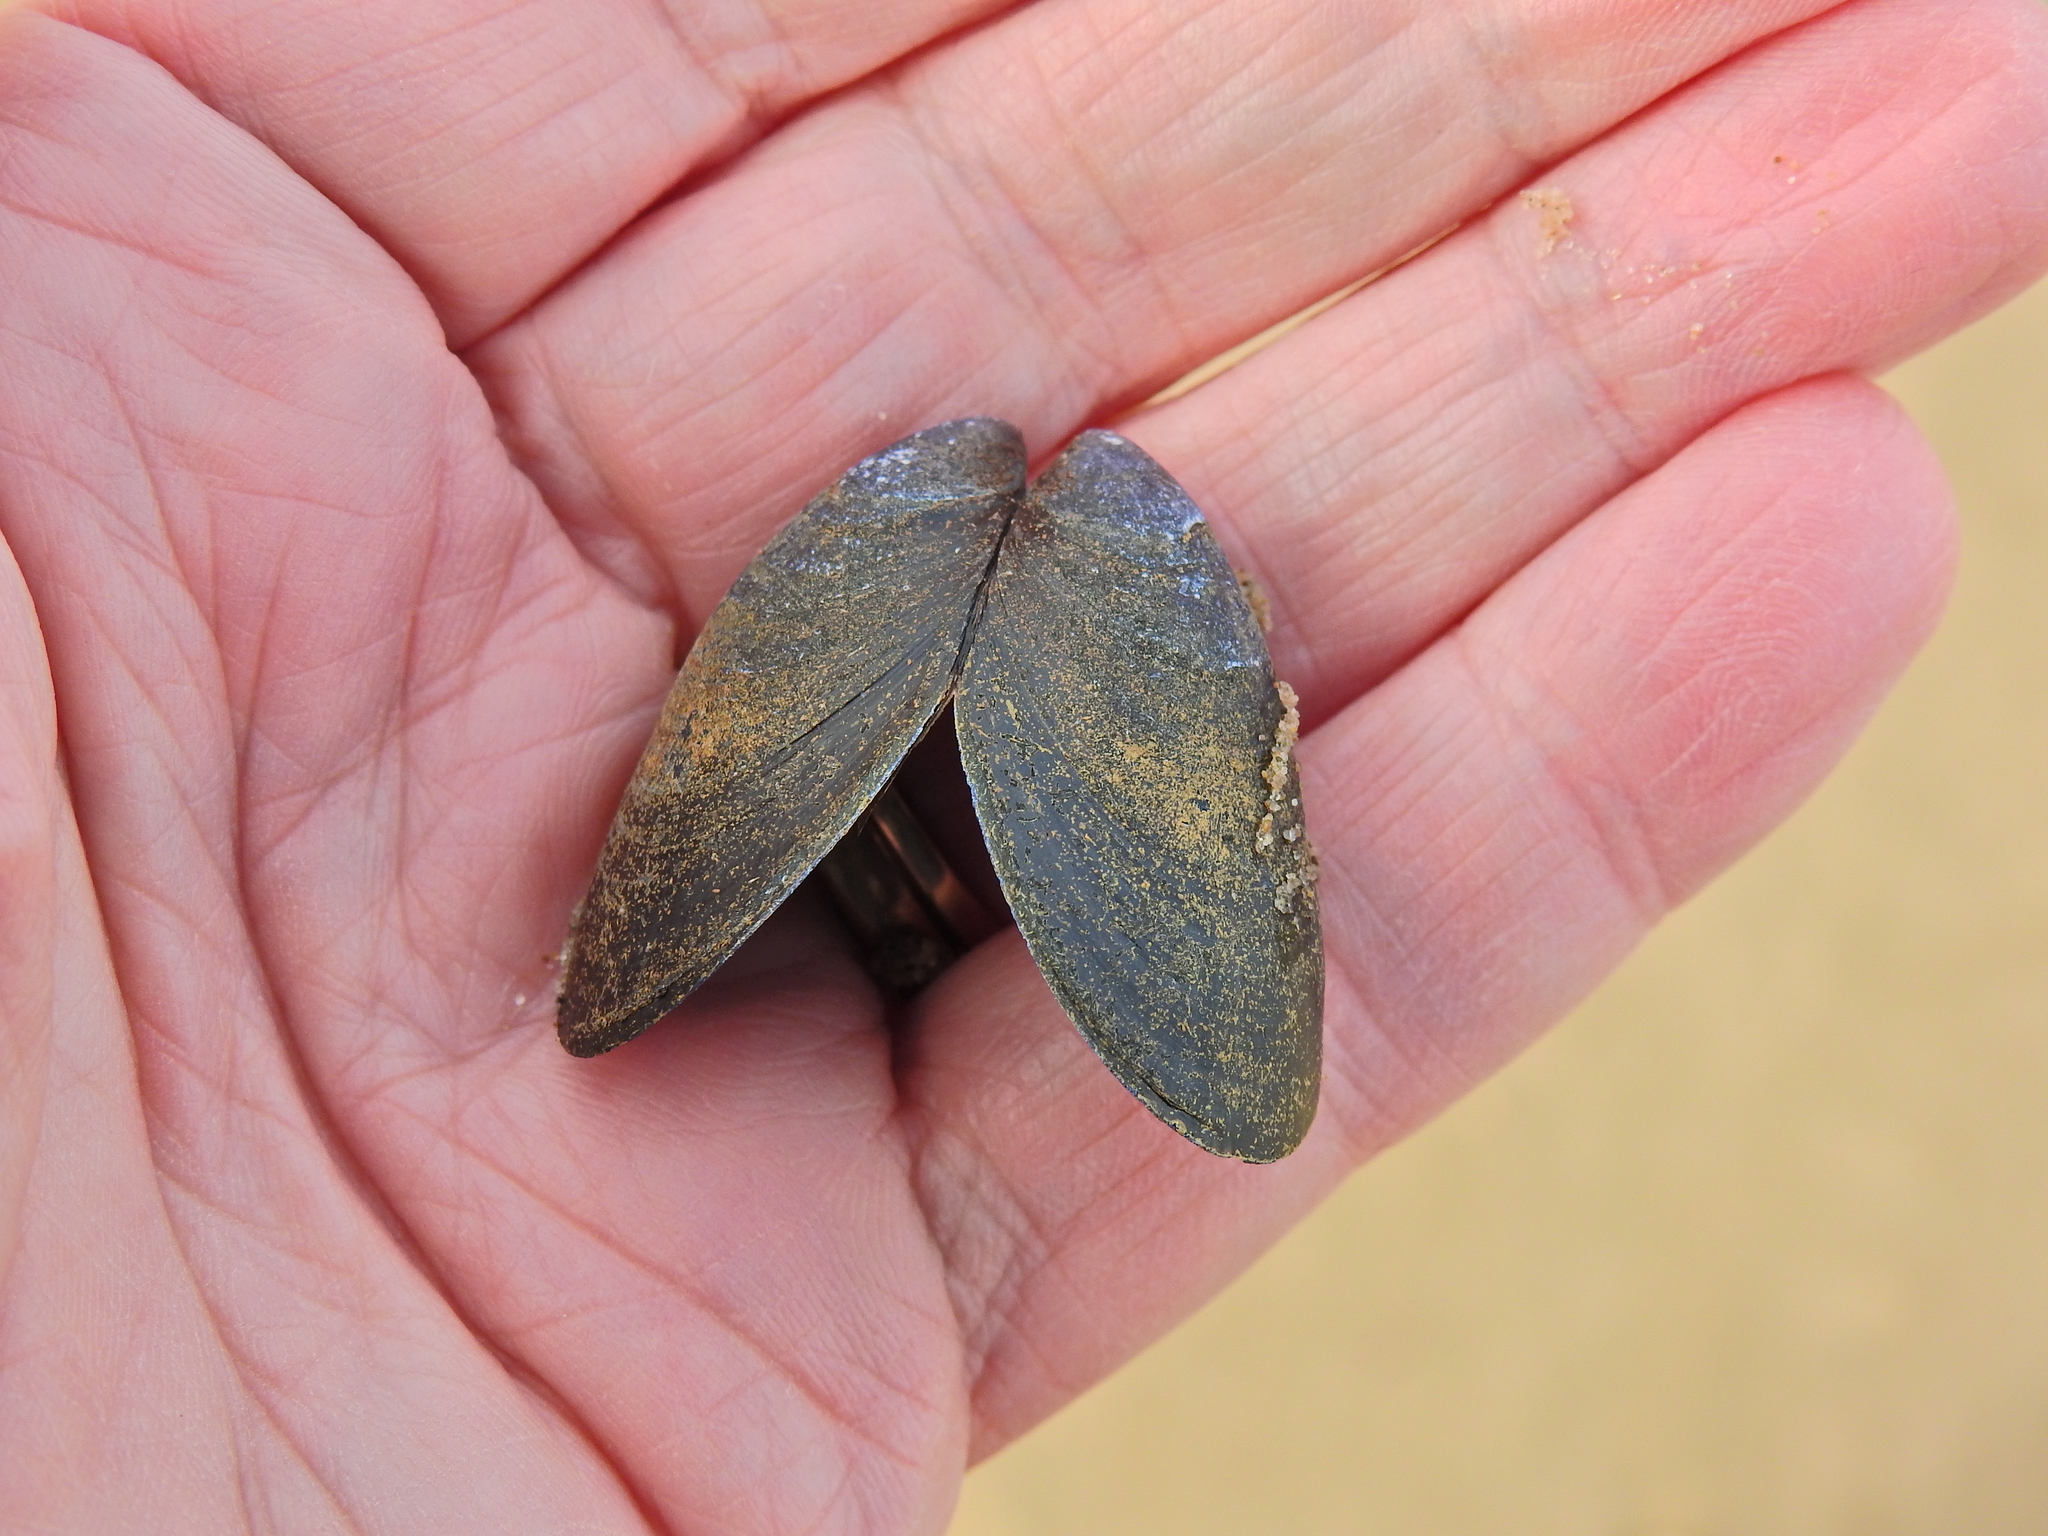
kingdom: Animalia
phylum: Mollusca
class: Bivalvia
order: Mytilida
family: Mytilidae
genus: Mytilus
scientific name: Mytilus edulis
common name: Blue mussel
